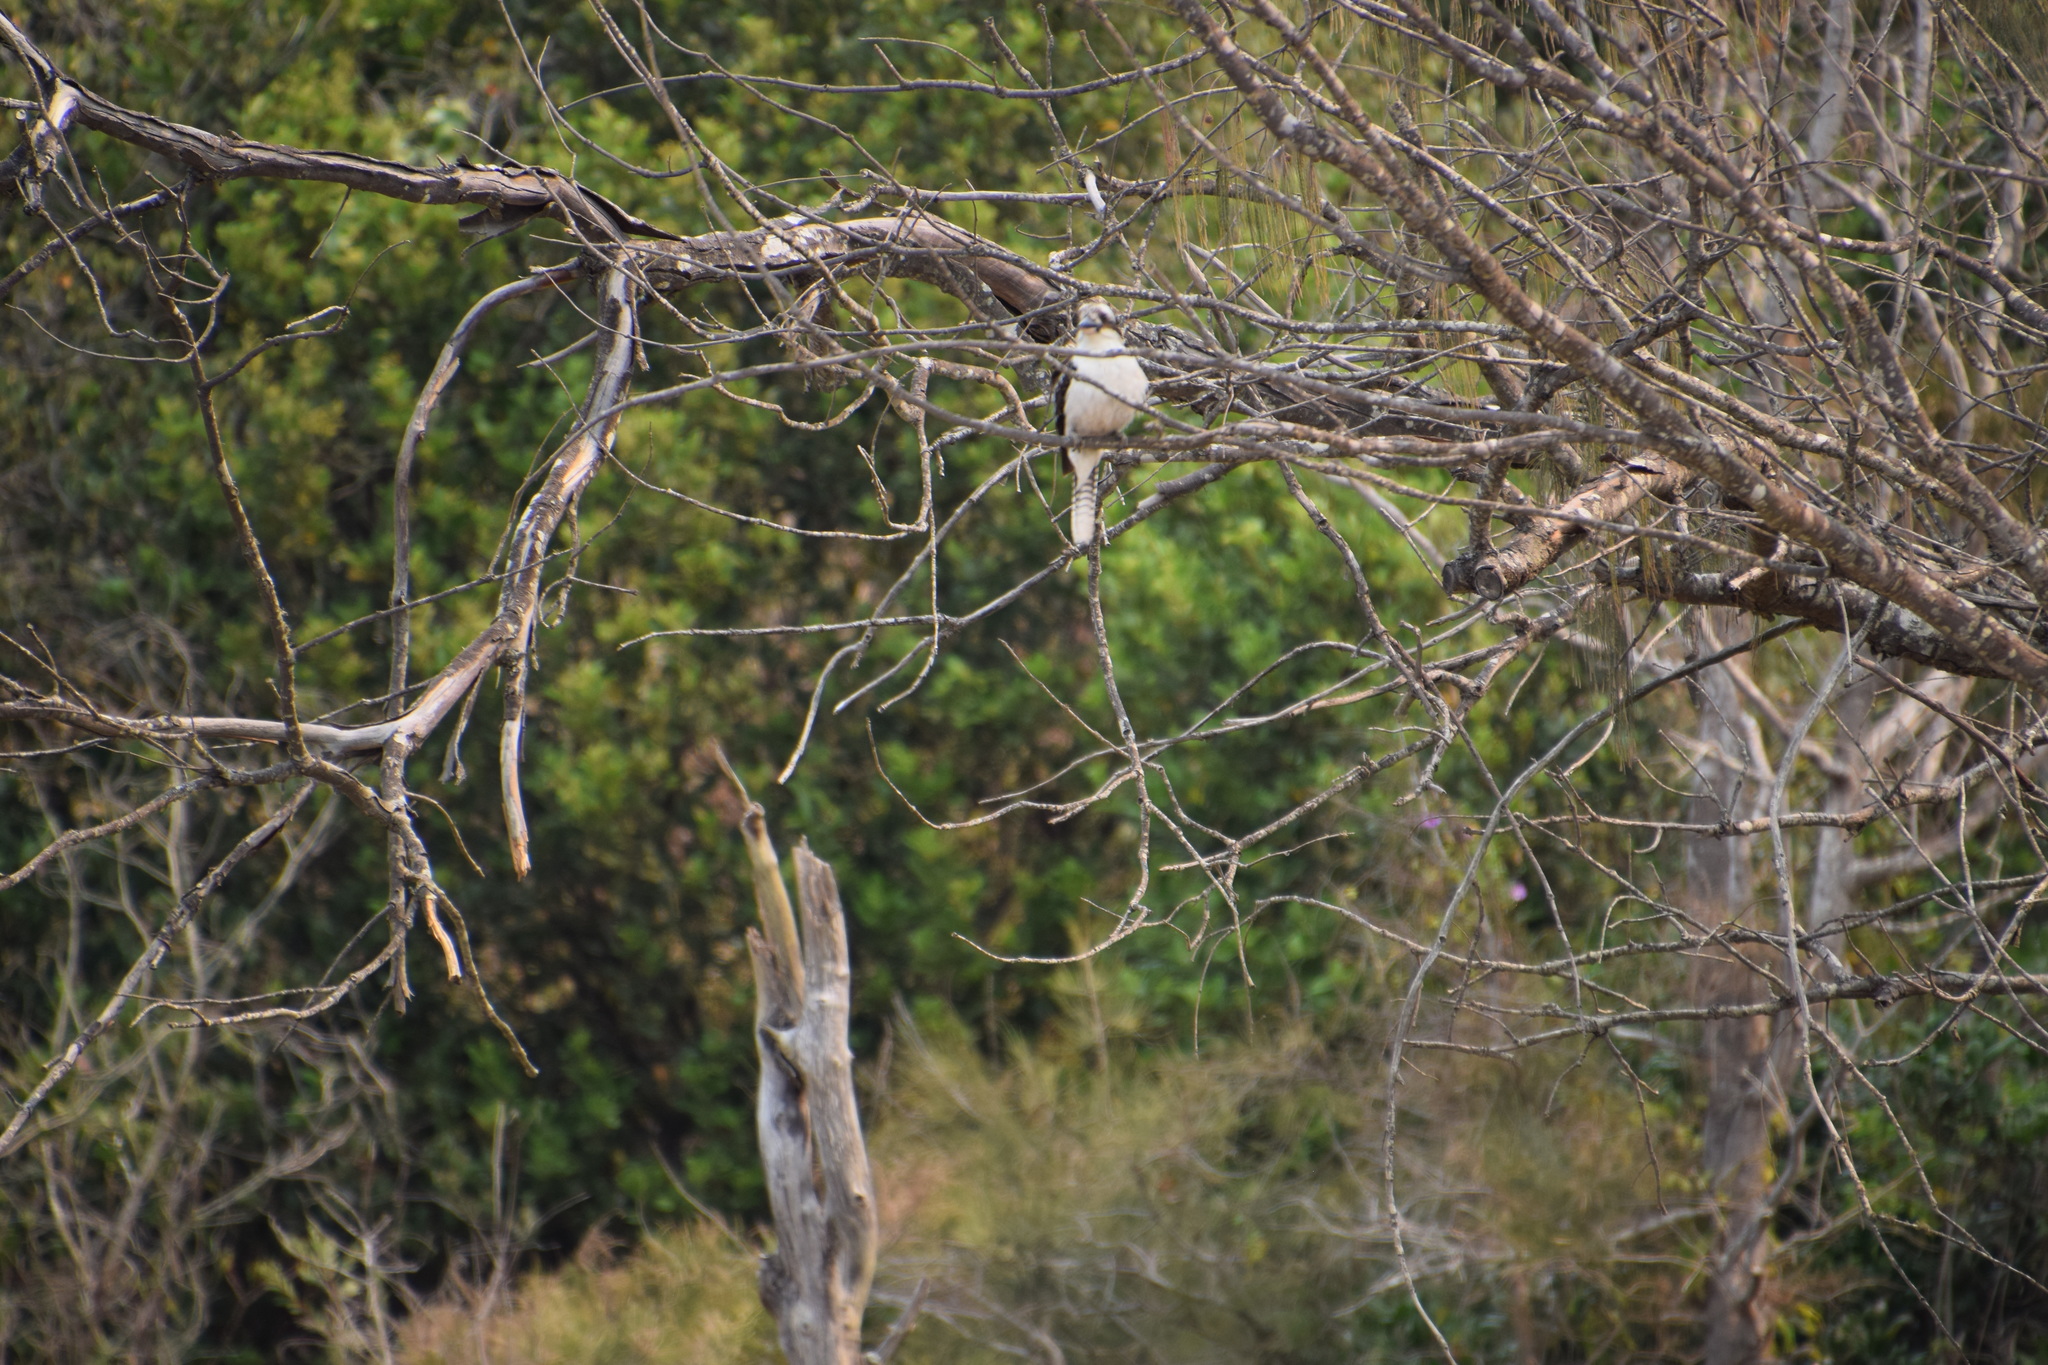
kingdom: Animalia
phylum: Chordata
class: Aves
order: Coraciiformes
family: Alcedinidae
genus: Dacelo
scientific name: Dacelo novaeguineae
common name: Laughing kookaburra
